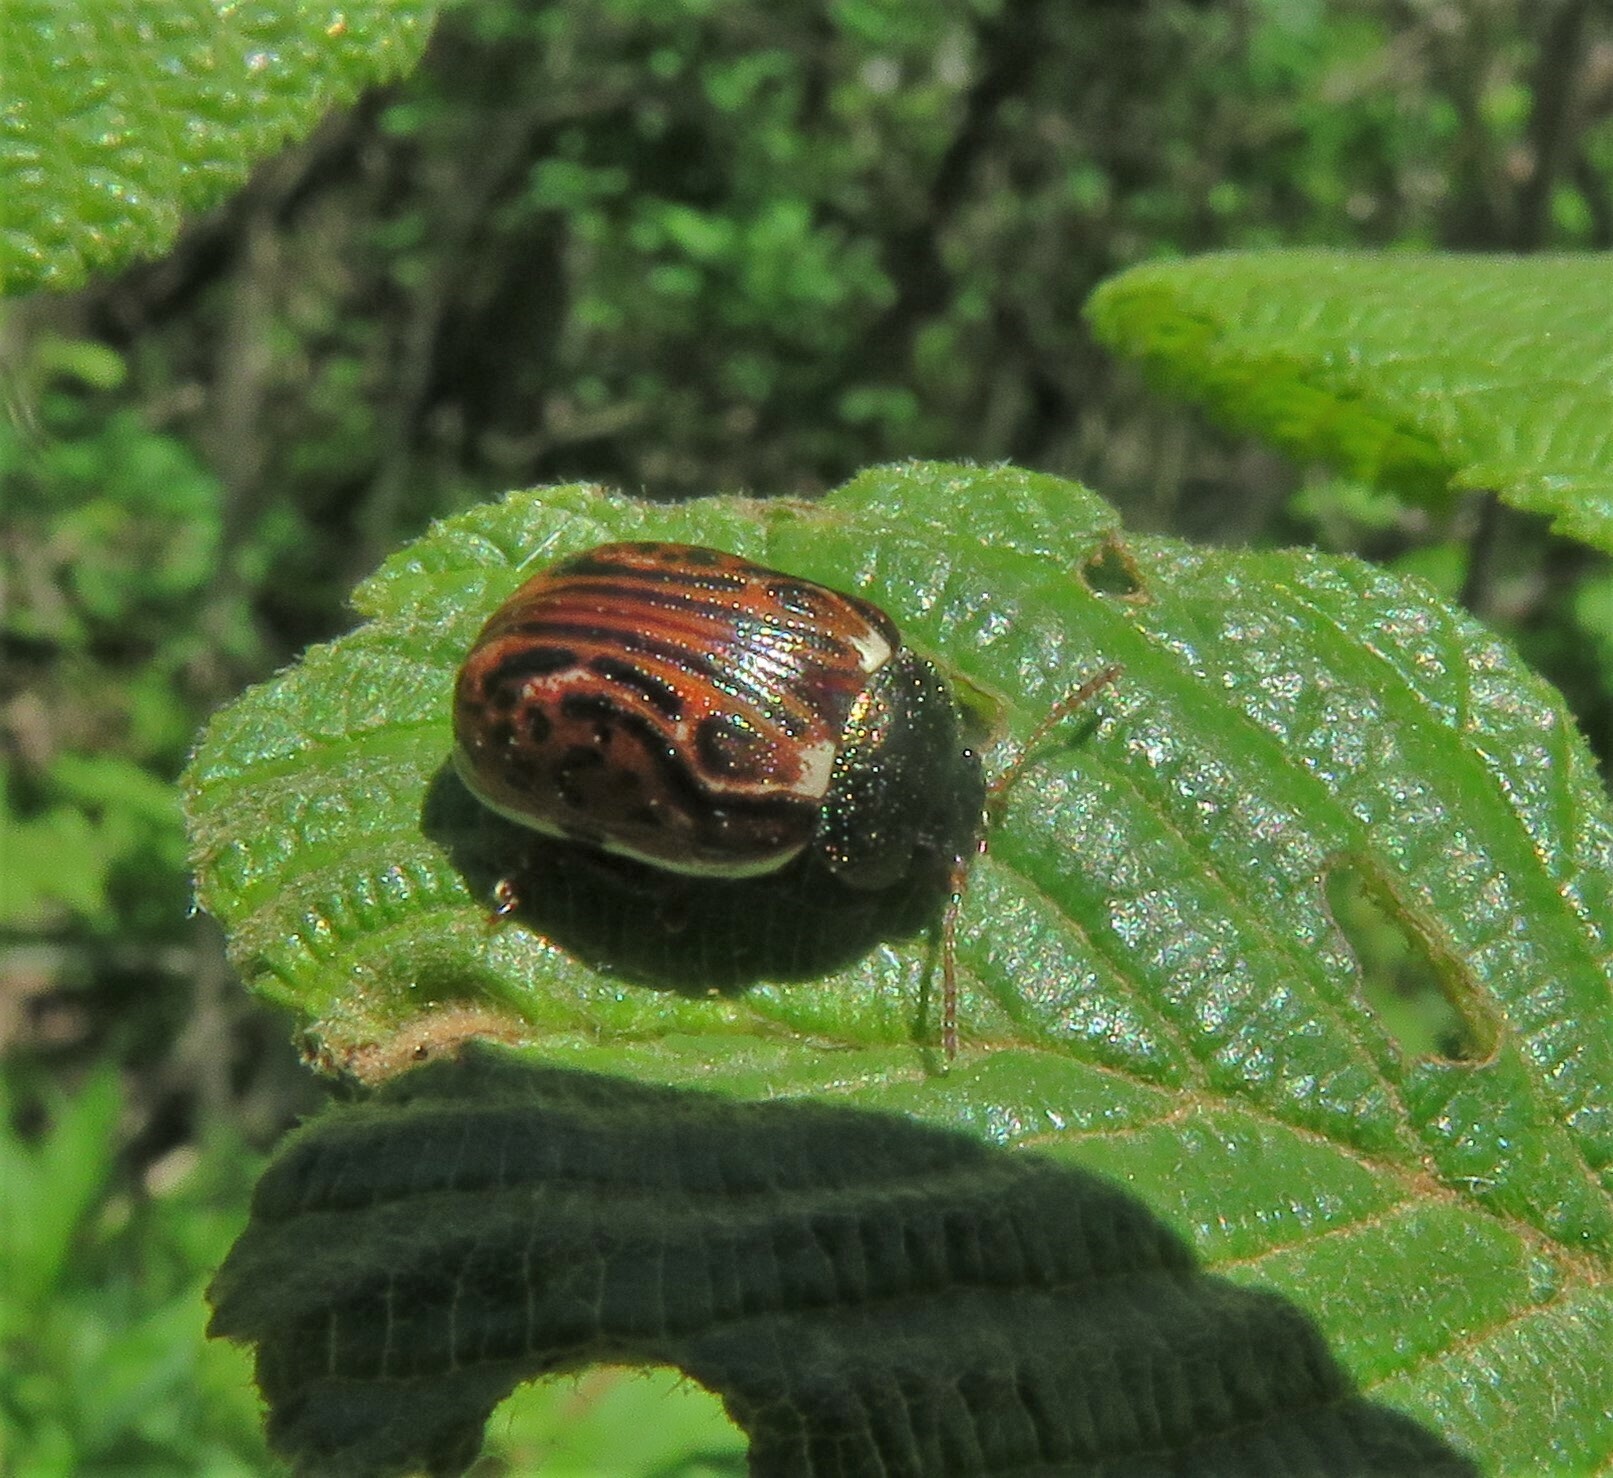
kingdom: Animalia
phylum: Arthropoda
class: Insecta
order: Coleoptera
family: Chrysomelidae
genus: Calligrapha
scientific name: Calligrapha alni
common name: Russet alder leaf beetle
